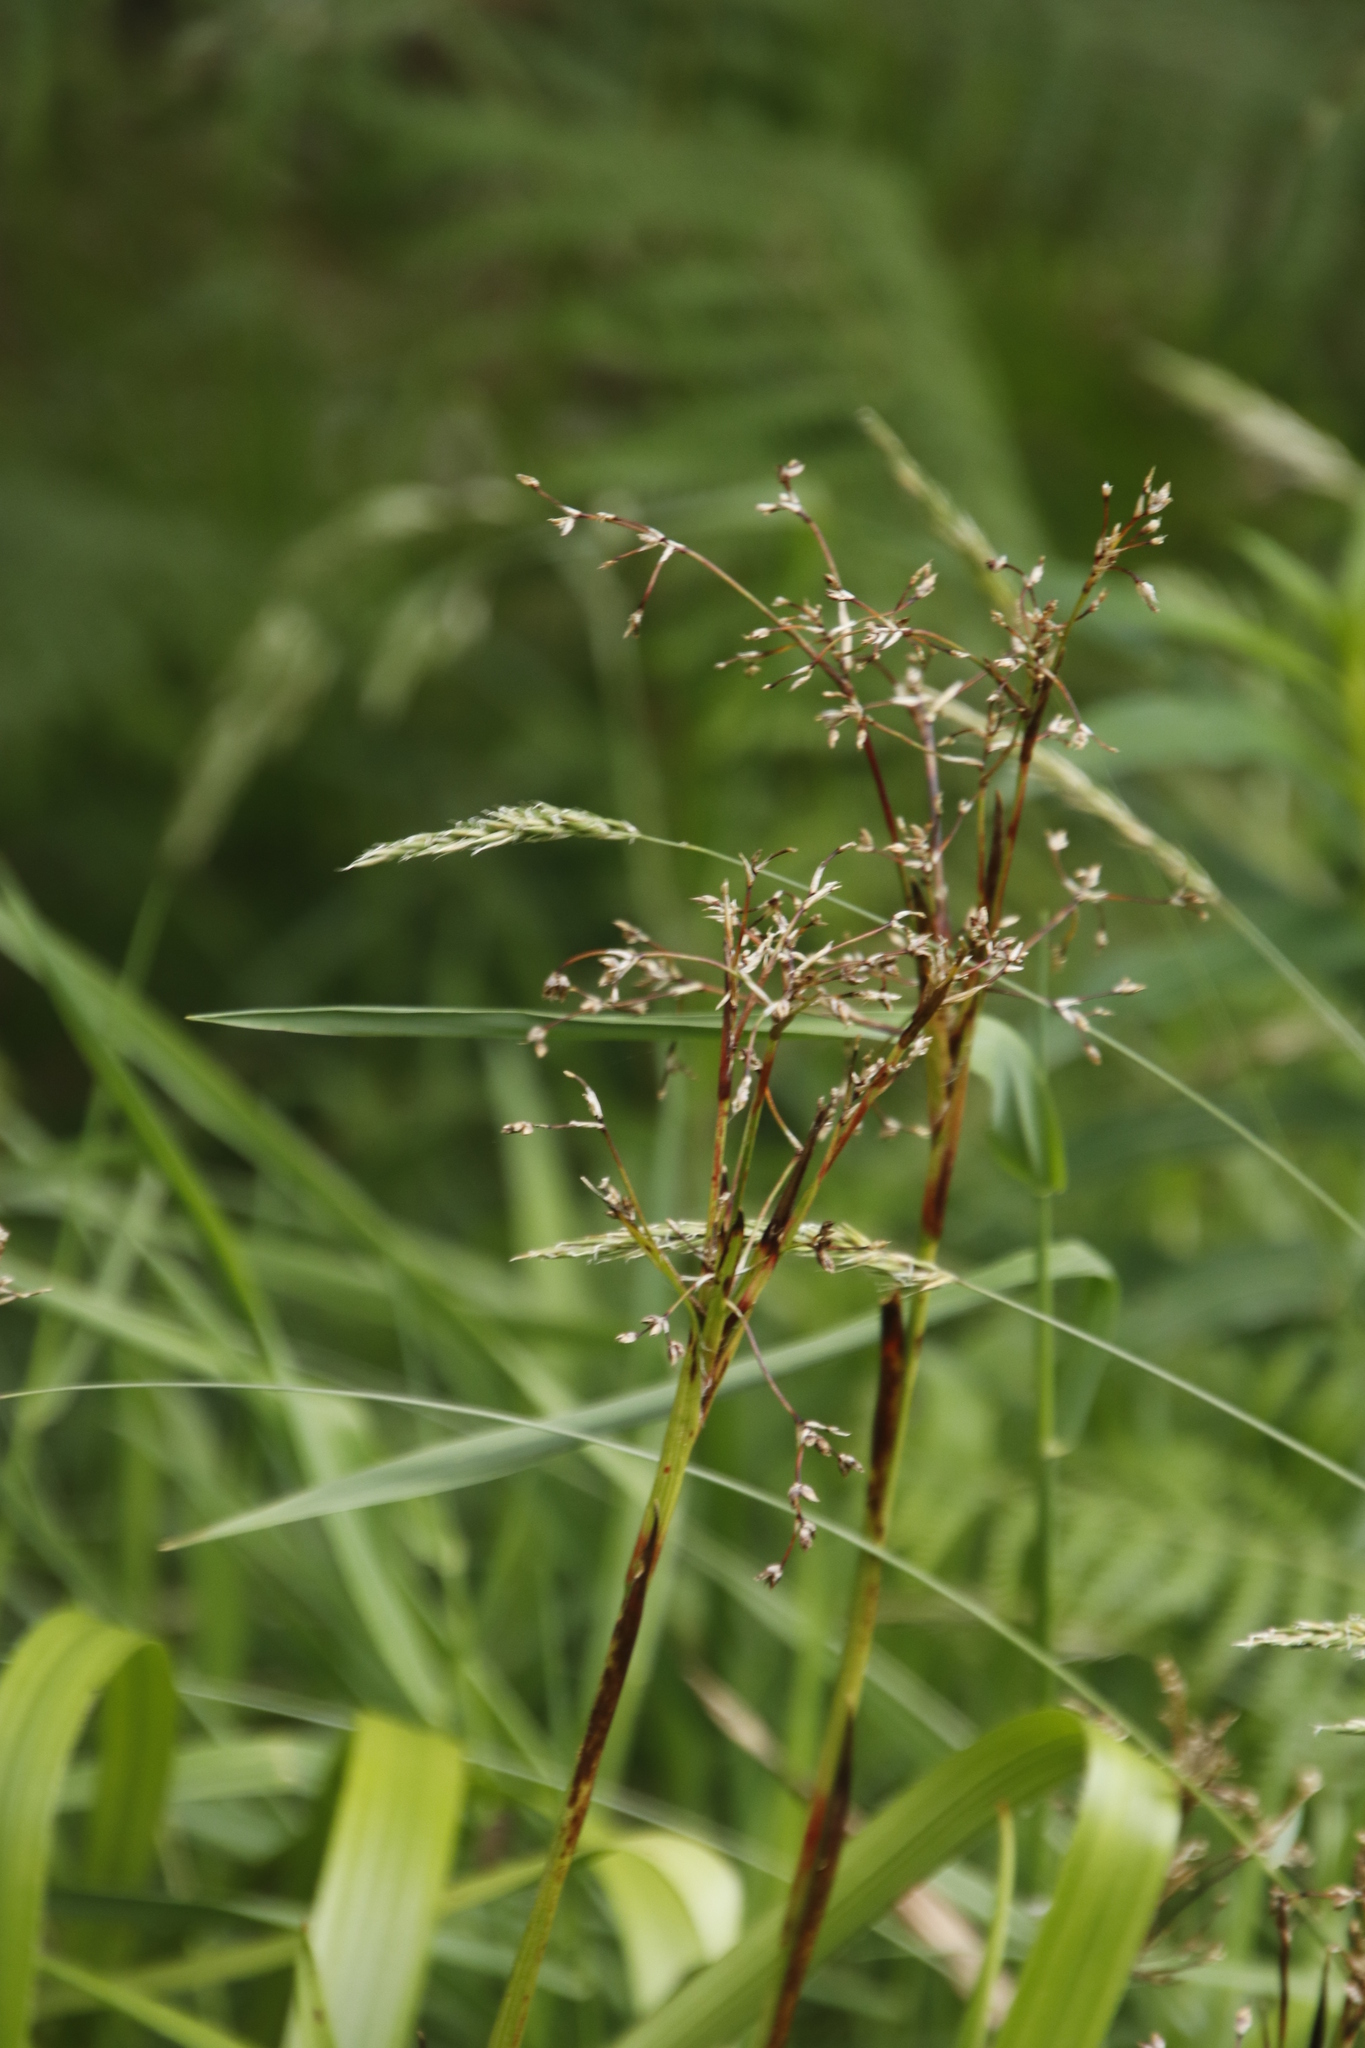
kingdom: Plantae
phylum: Tracheophyta
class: Liliopsida
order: Poales
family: Juncaceae
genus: Luzula
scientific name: Luzula sylvatica
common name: Great wood-rush
